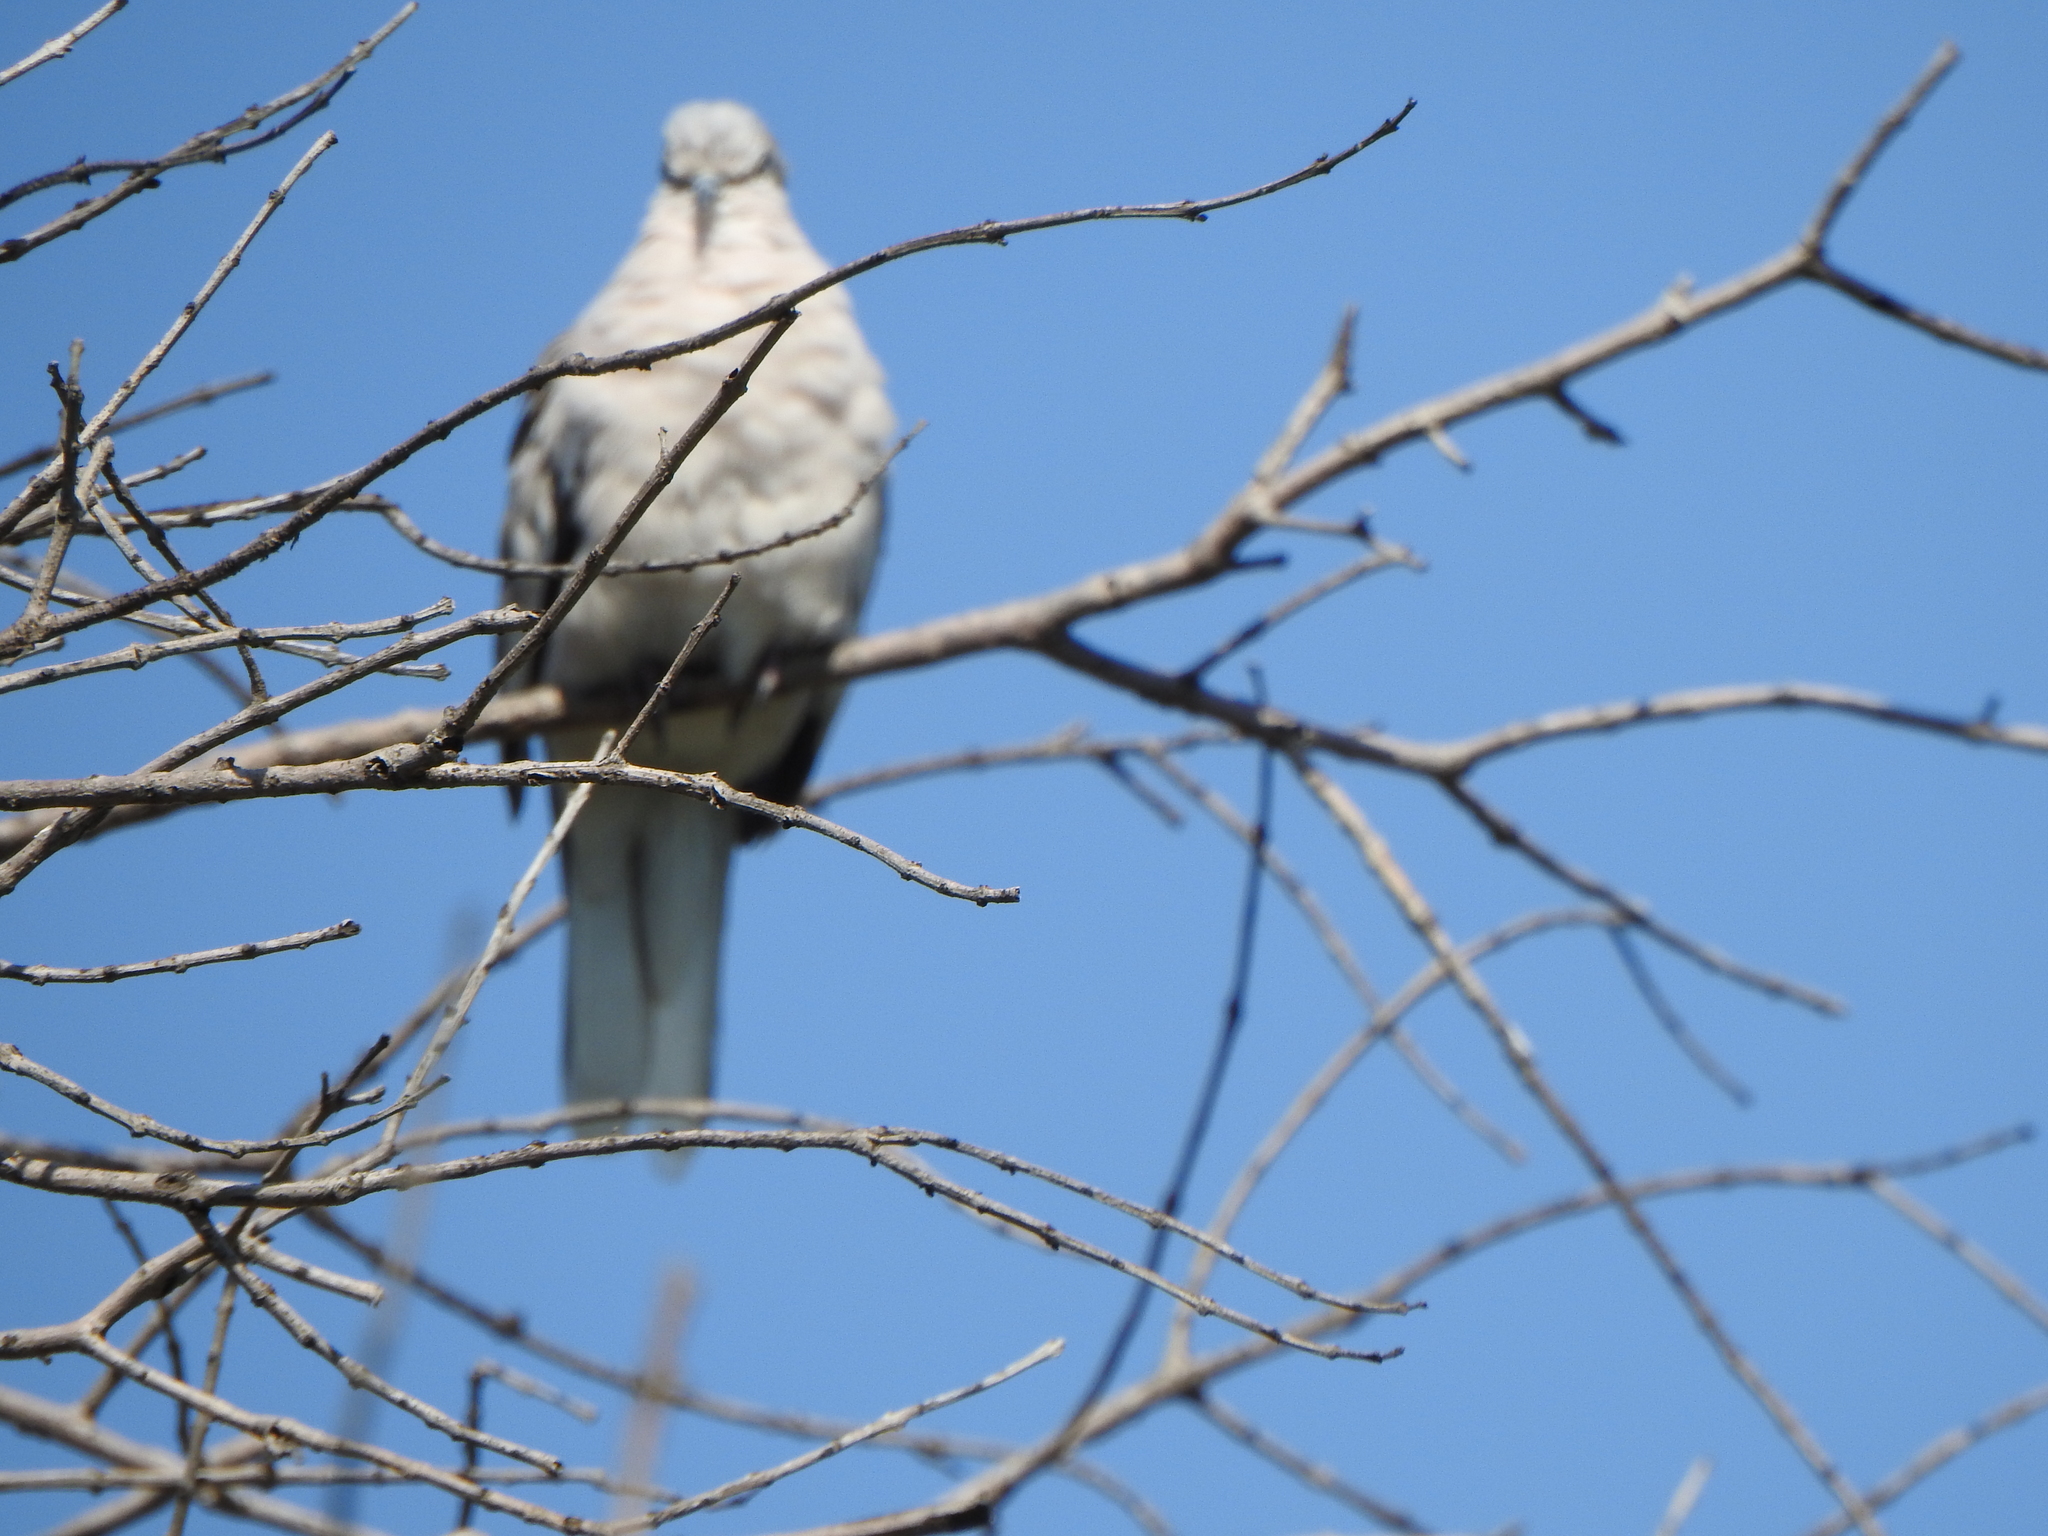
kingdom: Animalia
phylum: Chordata
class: Aves
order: Columbiformes
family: Columbidae
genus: Columbina
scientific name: Columbina picui
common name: Picui ground dove
